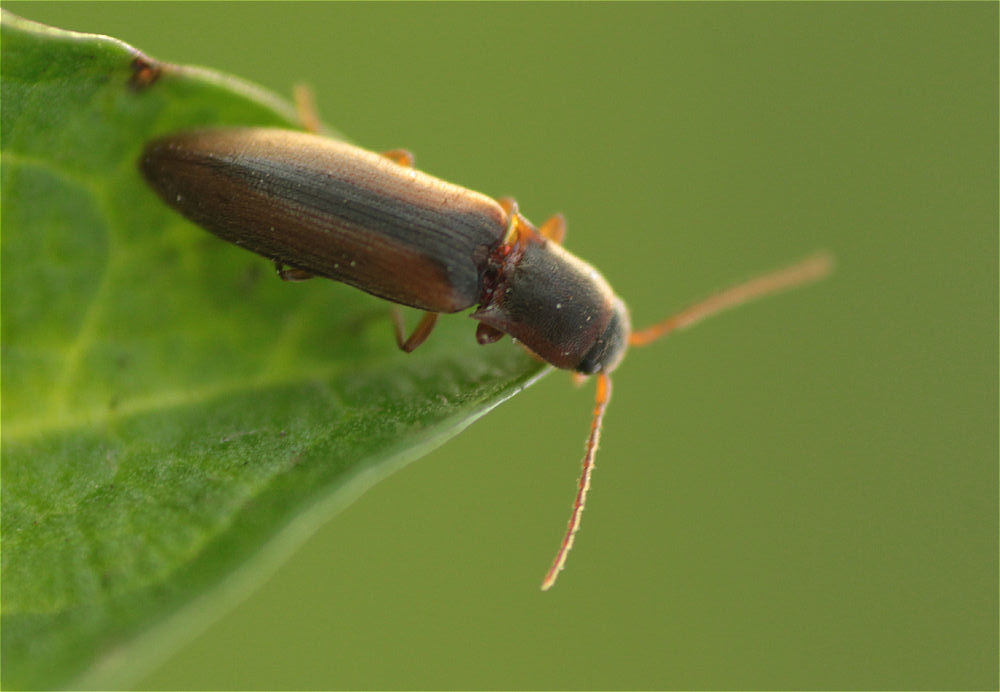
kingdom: Animalia
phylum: Arthropoda
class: Insecta
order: Coleoptera
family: Elateridae
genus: Dalopius
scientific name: Dalopius marginatus
